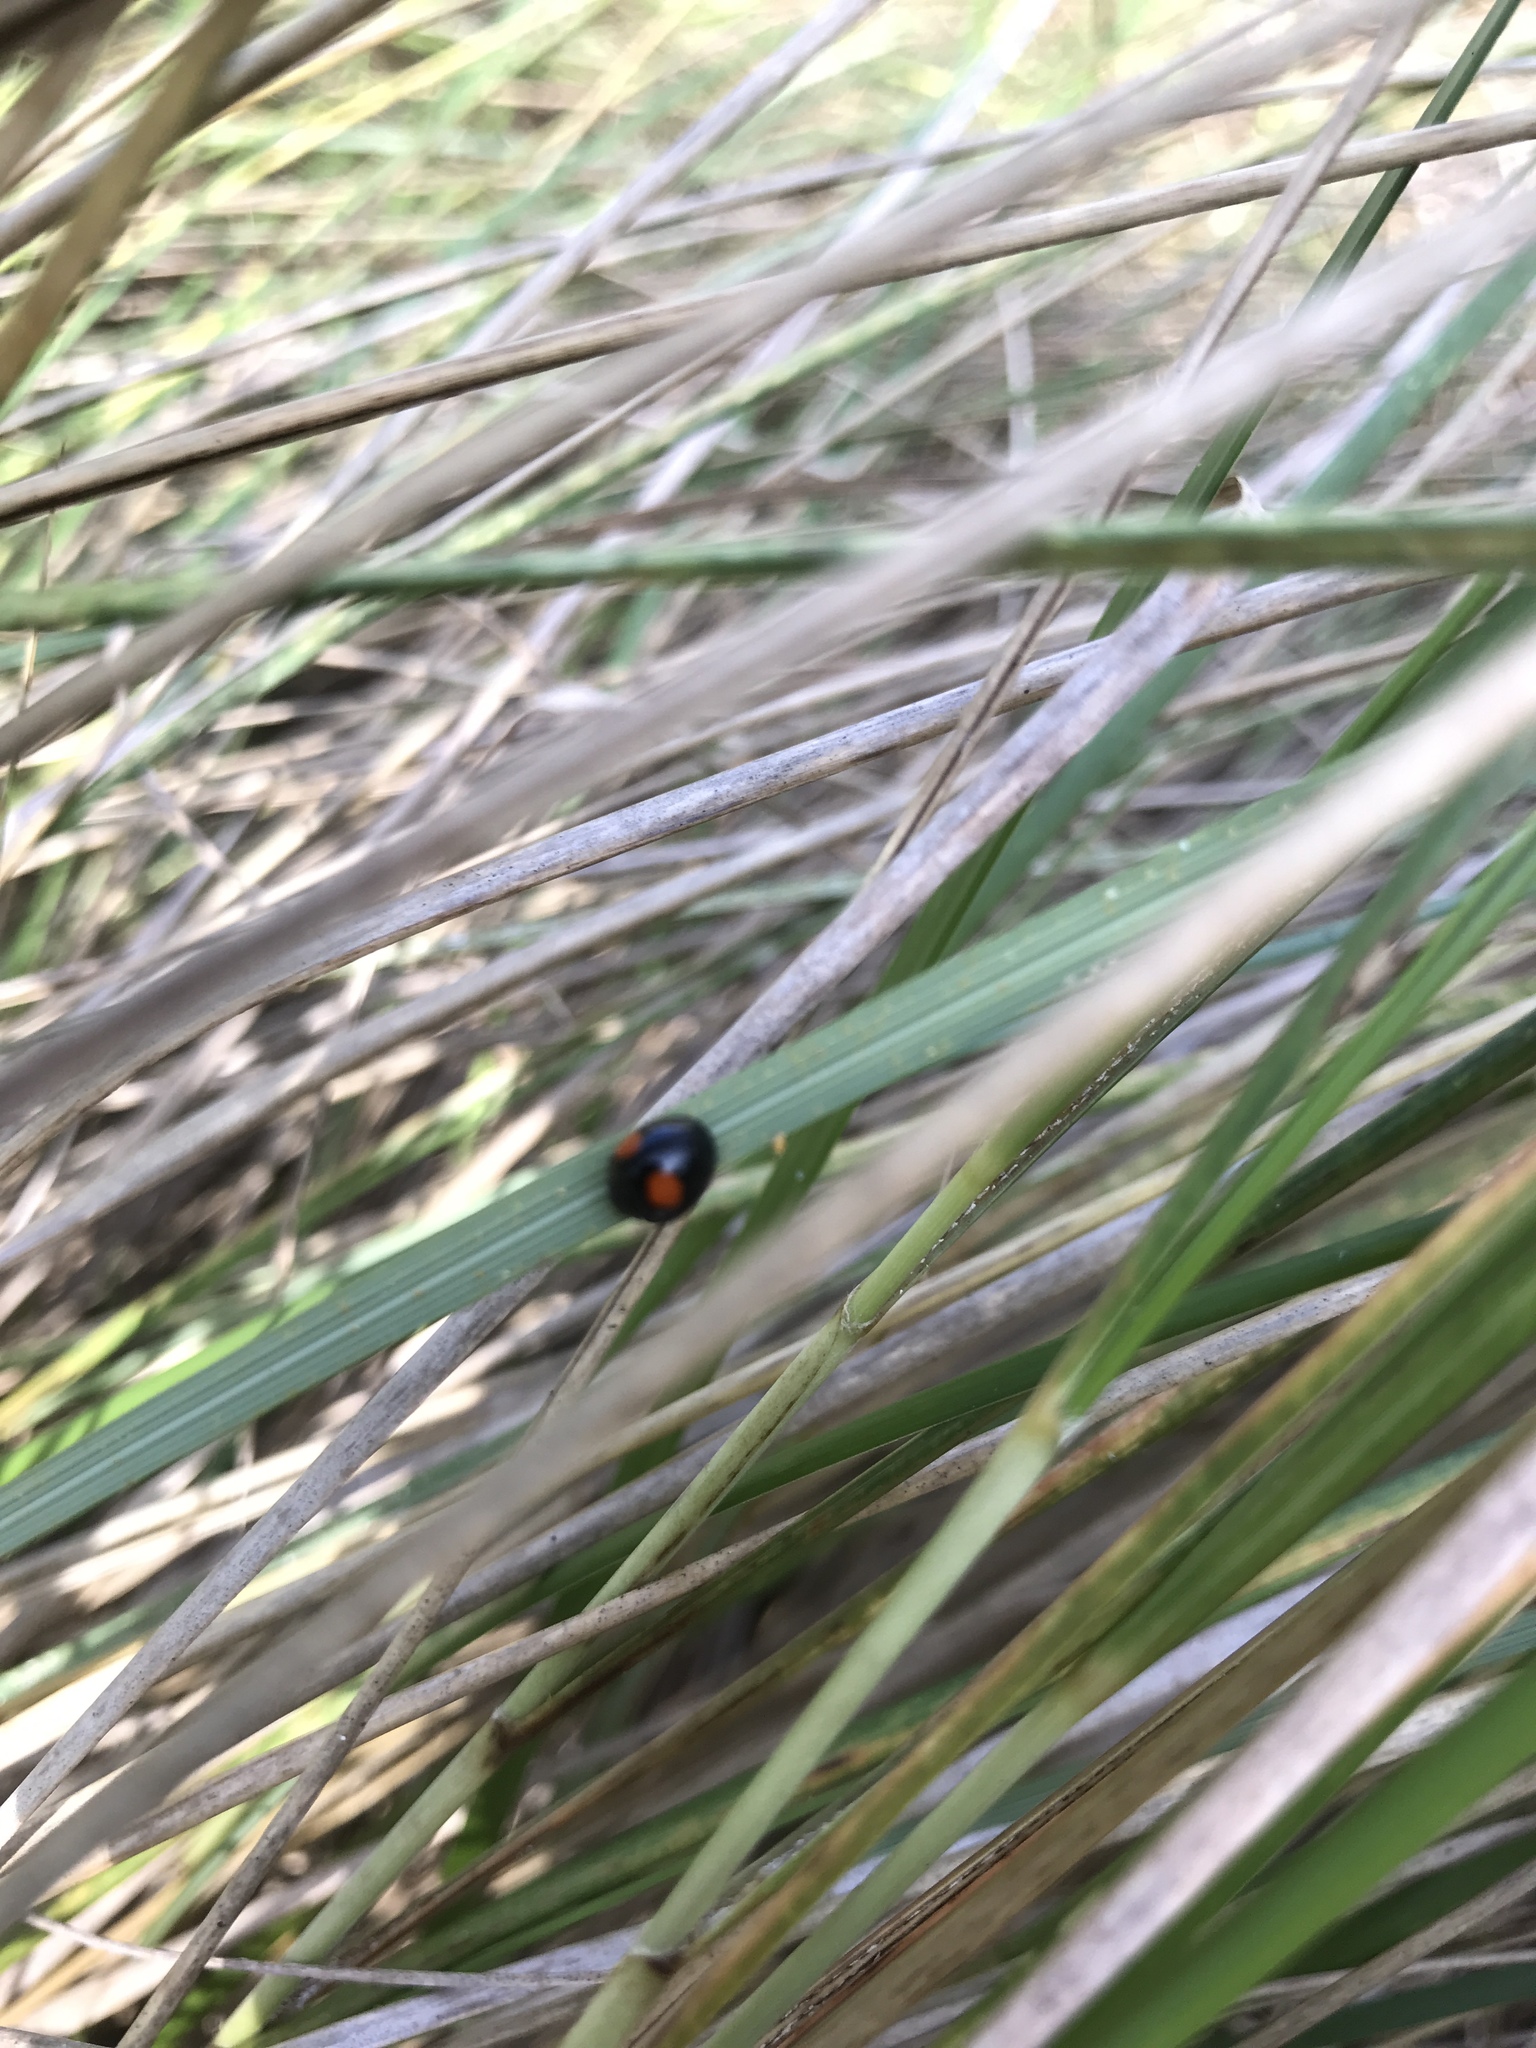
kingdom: Animalia
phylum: Arthropoda
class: Insecta
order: Coleoptera
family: Coccinellidae
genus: Chilocorus
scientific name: Chilocorus cacti
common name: Cactus lady beetle
